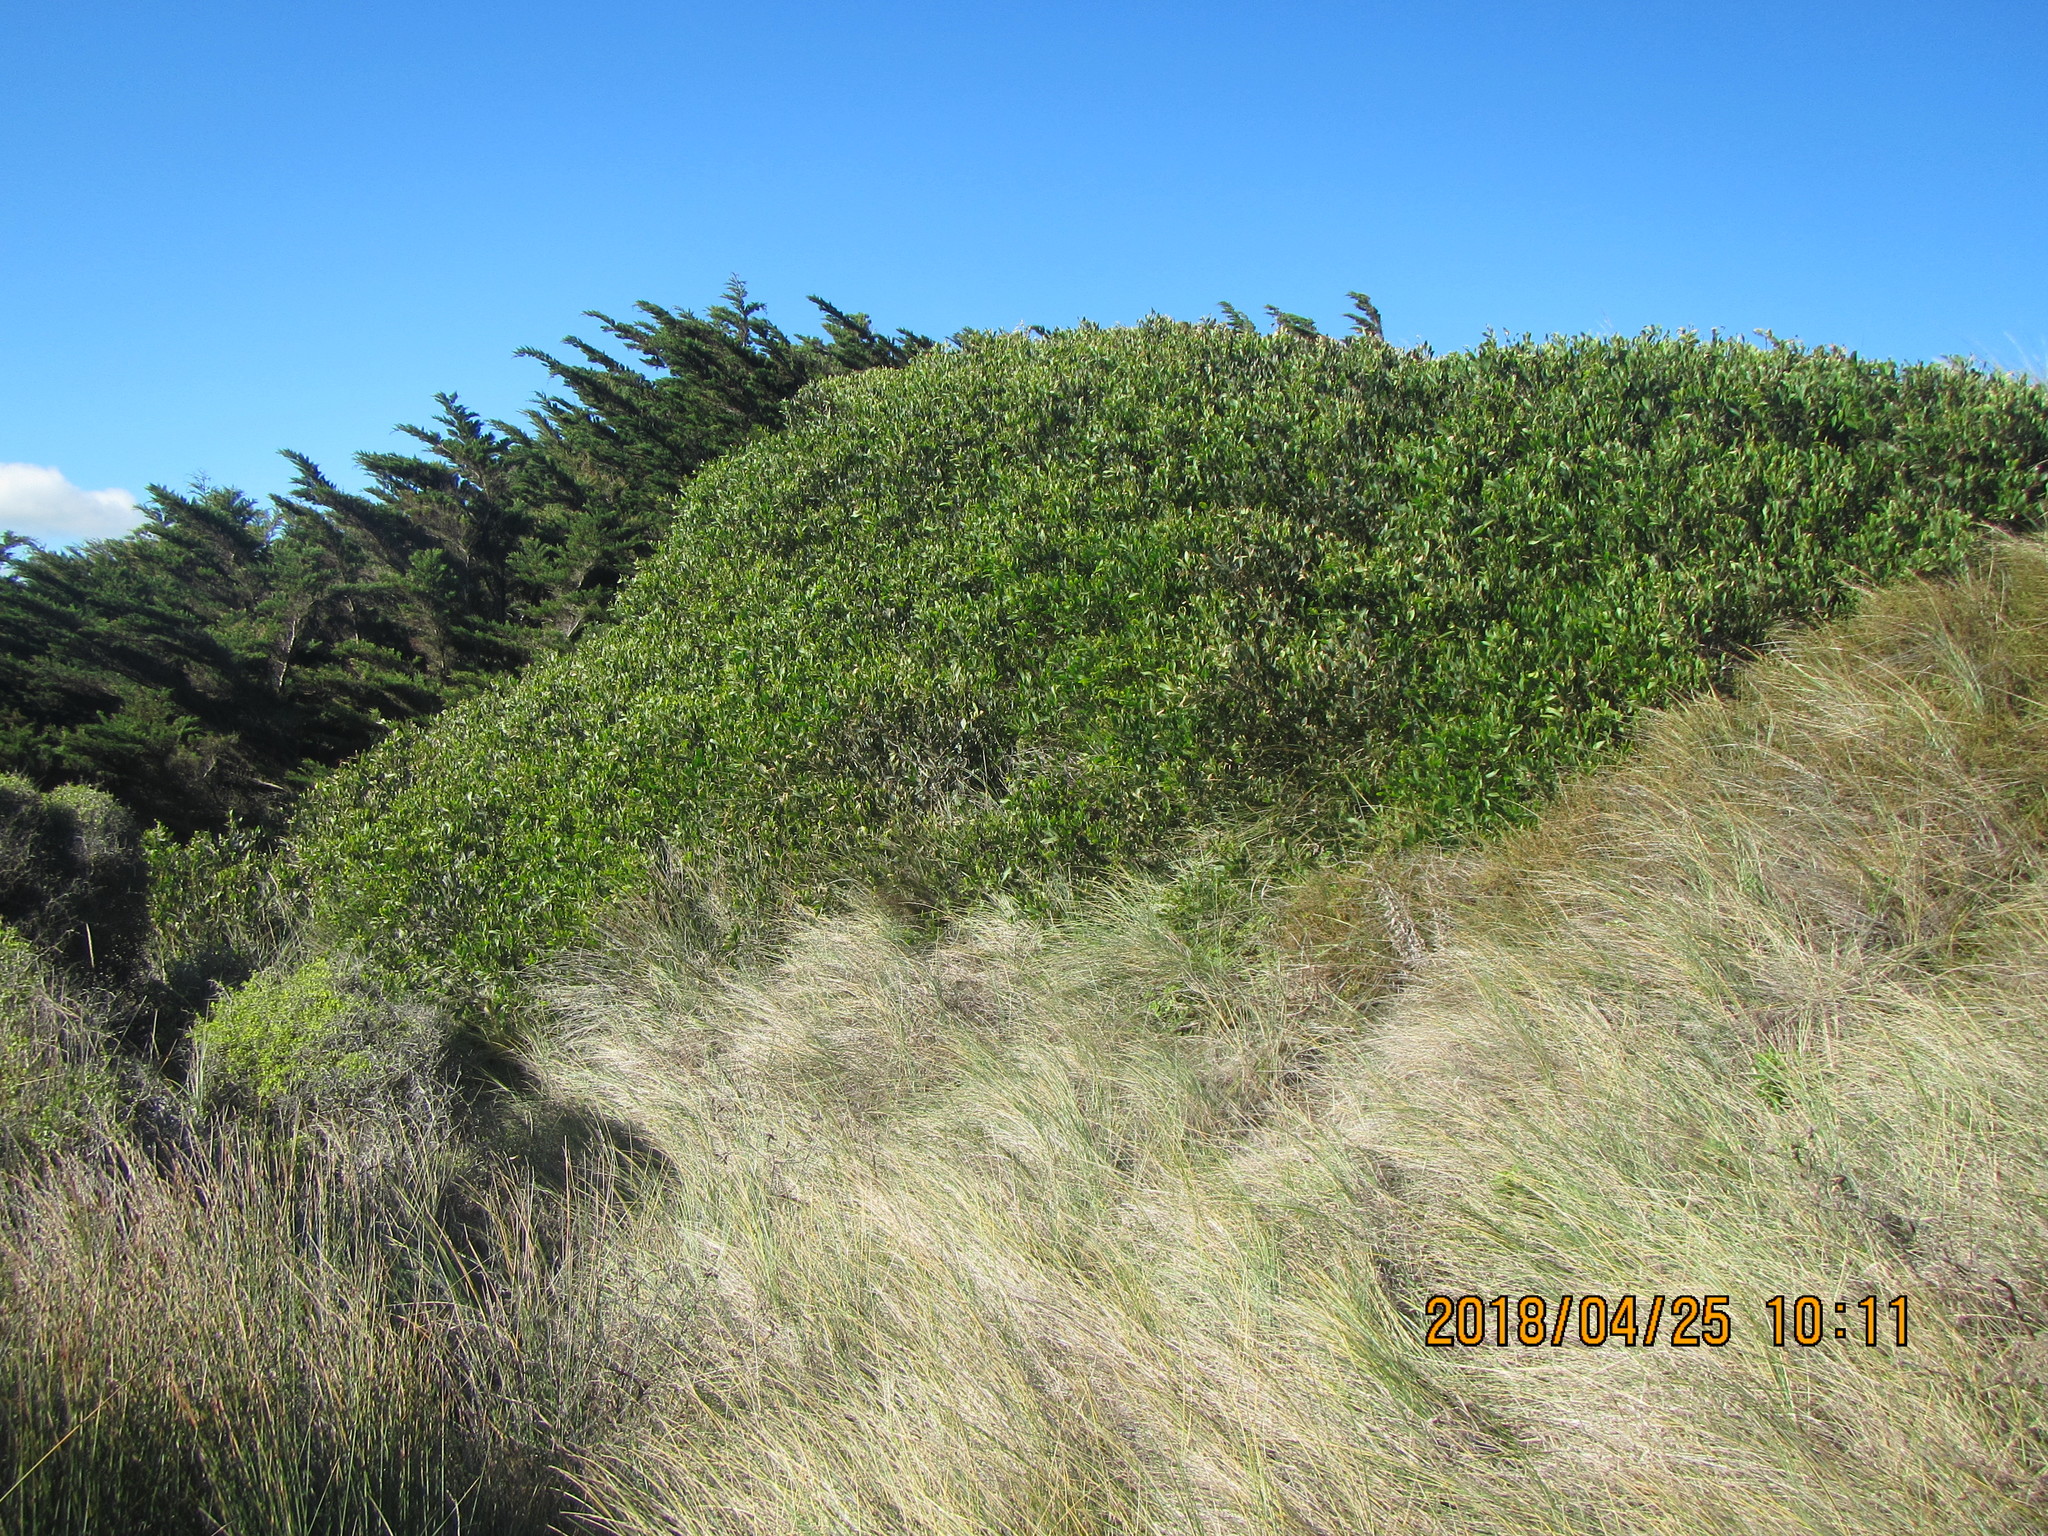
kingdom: Plantae
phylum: Tracheophyta
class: Magnoliopsida
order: Fabales
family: Fabaceae
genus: Acacia
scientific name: Acacia longifolia
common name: Sydney golden wattle
